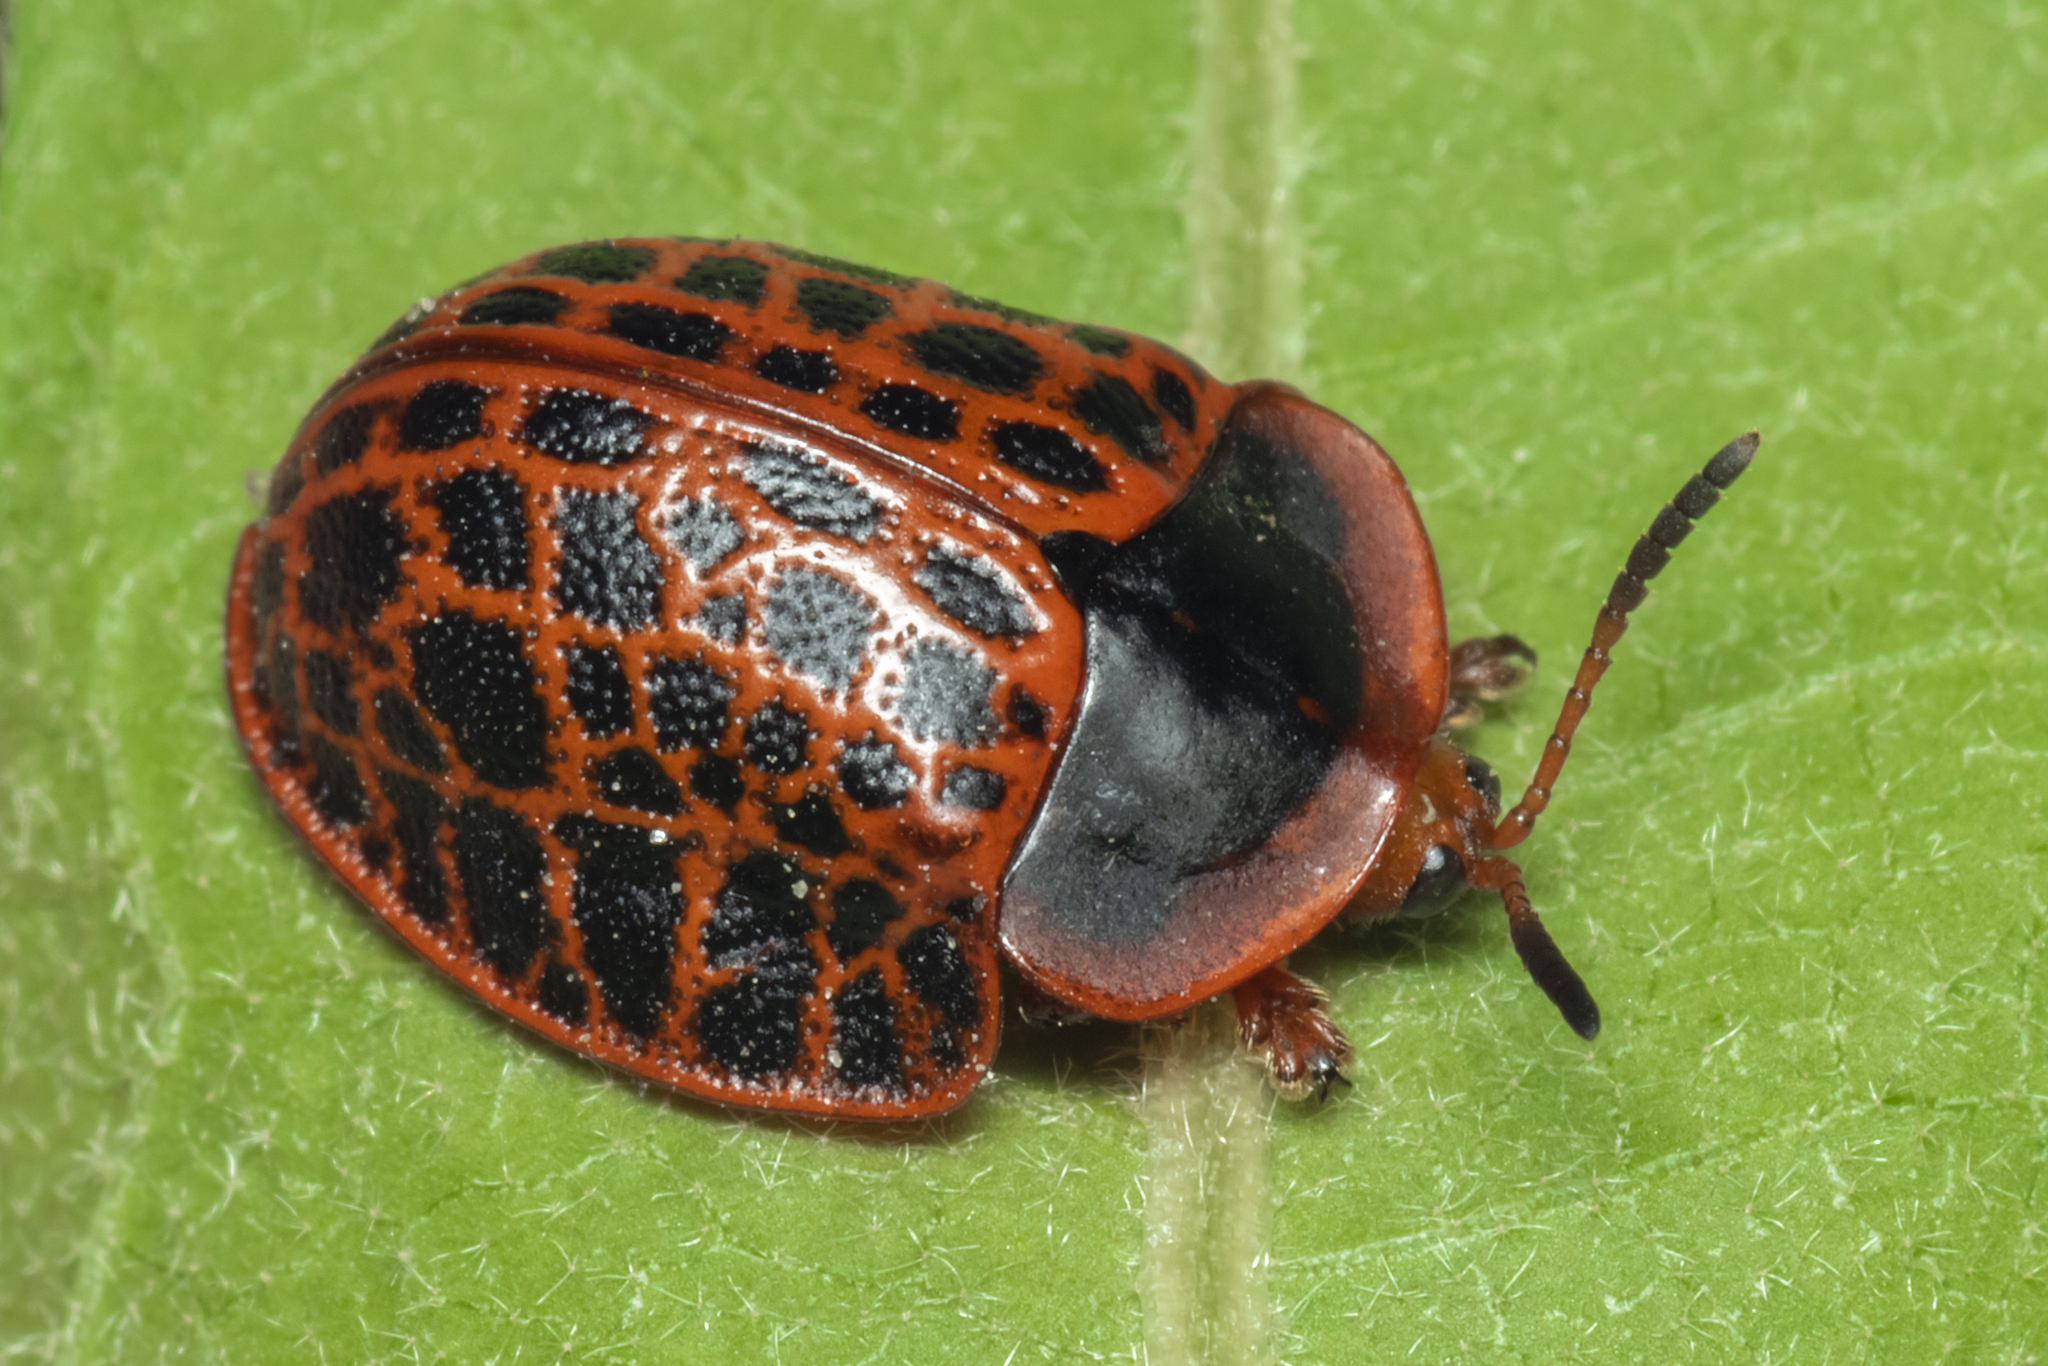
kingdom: Animalia
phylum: Arthropoda
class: Insecta
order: Coleoptera
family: Chrysomelidae
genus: Botanochara
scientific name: Botanochara macularia
